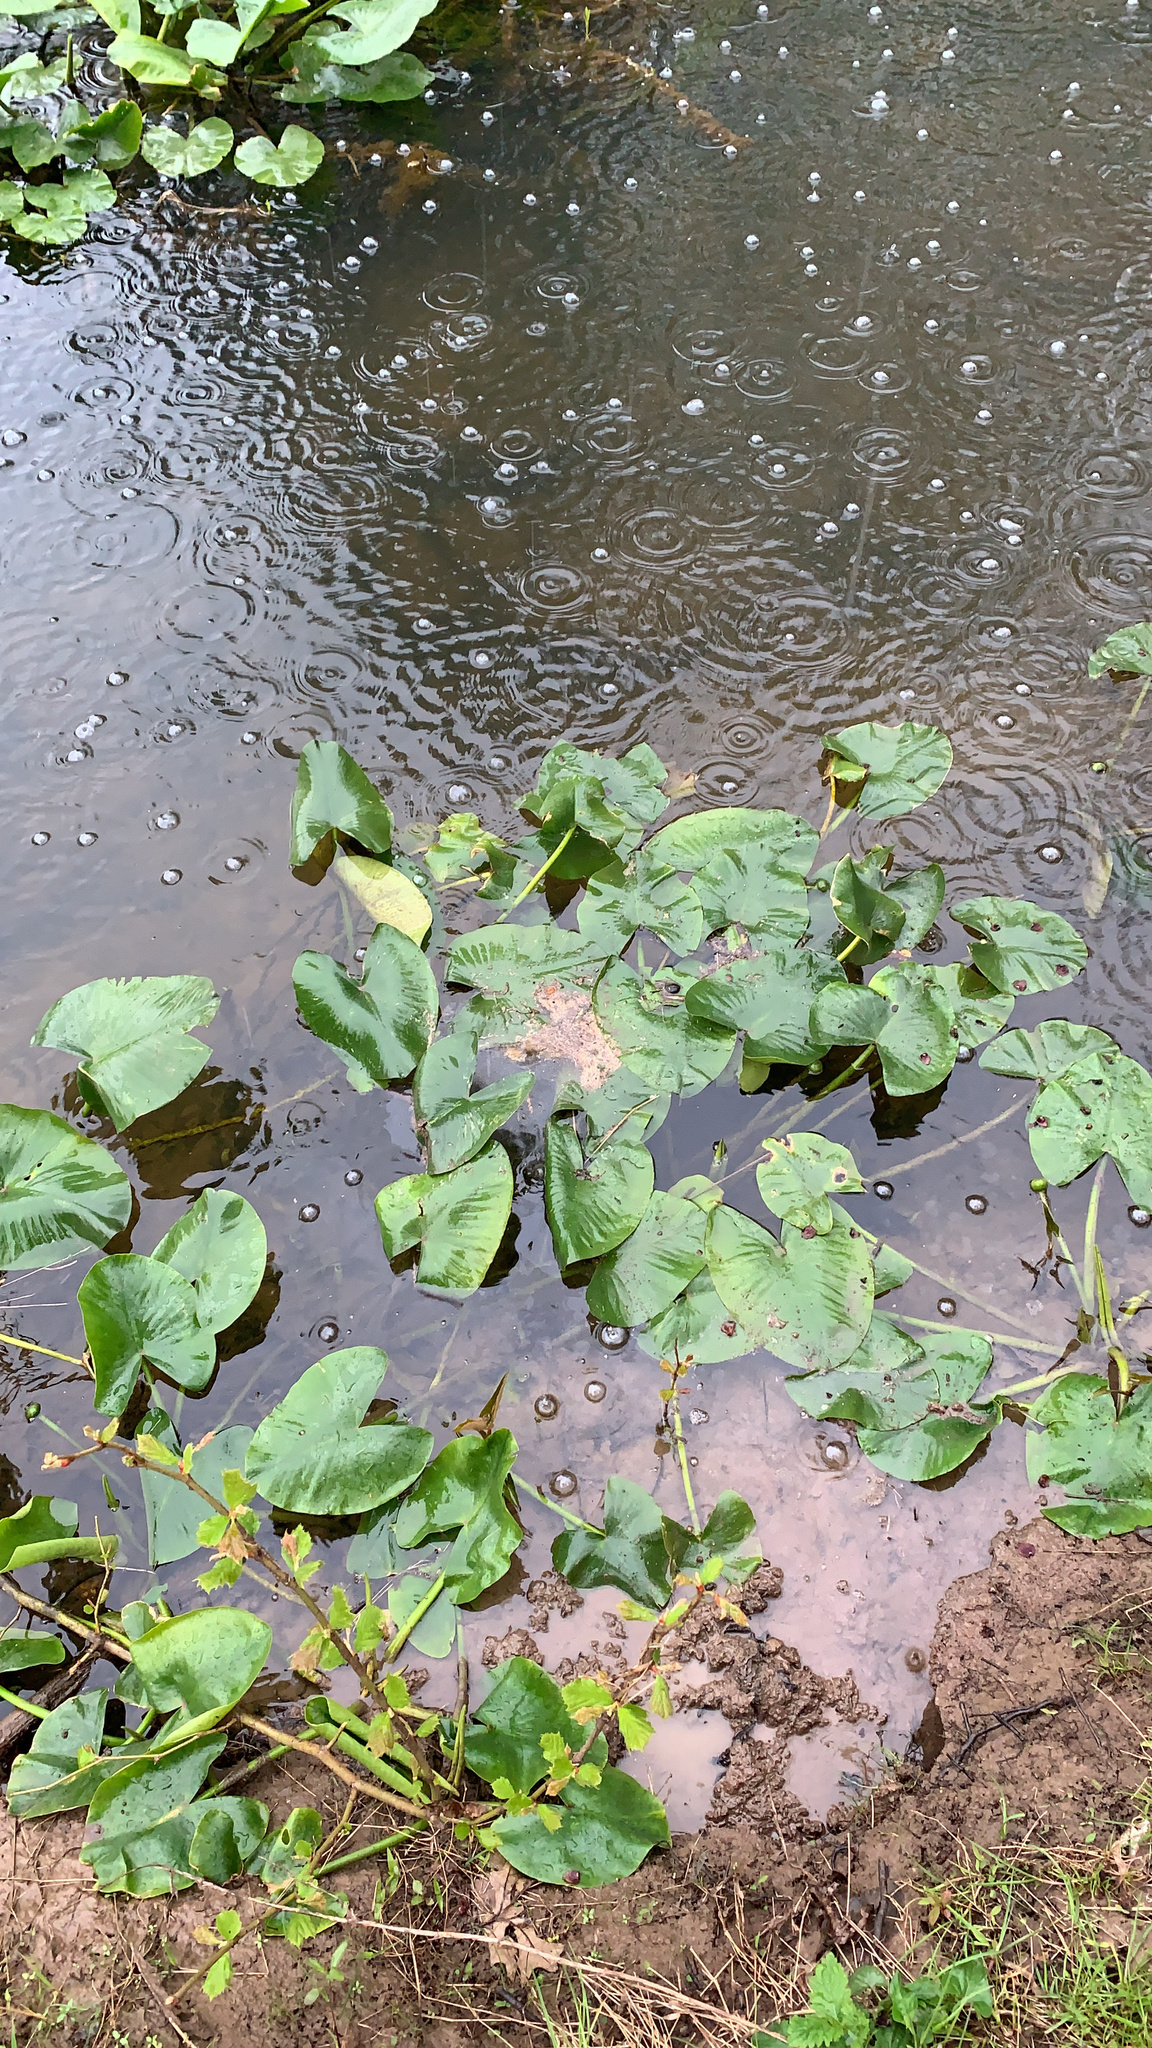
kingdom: Plantae
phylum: Tracheophyta
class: Magnoliopsida
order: Nymphaeales
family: Nymphaeaceae
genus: Nuphar
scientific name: Nuphar advena
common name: Spatter-dock
